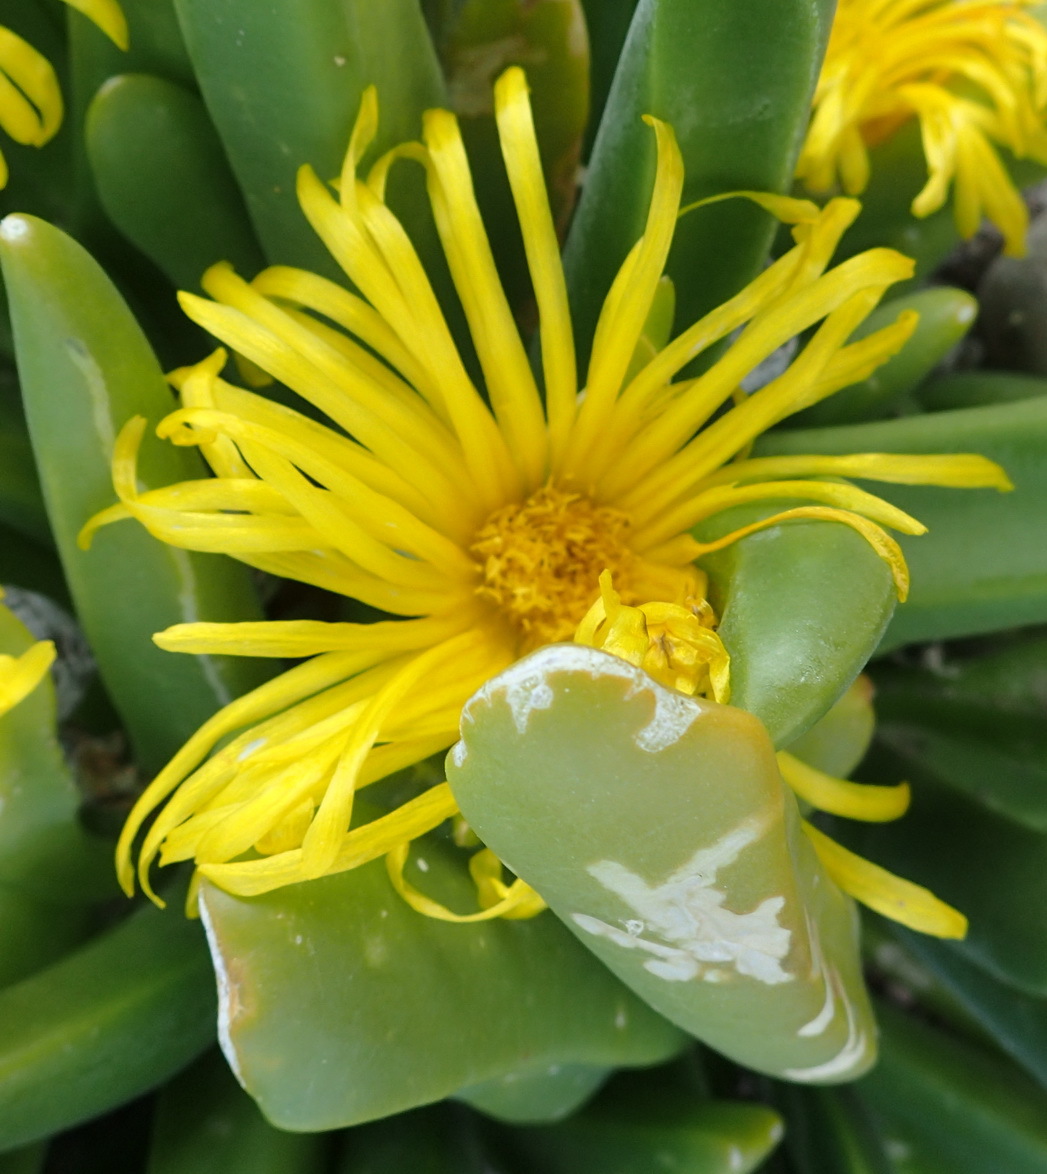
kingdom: Plantae
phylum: Tracheophyta
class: Magnoliopsida
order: Caryophyllales
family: Aizoaceae
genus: Glottiphyllum
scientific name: Glottiphyllum regium
